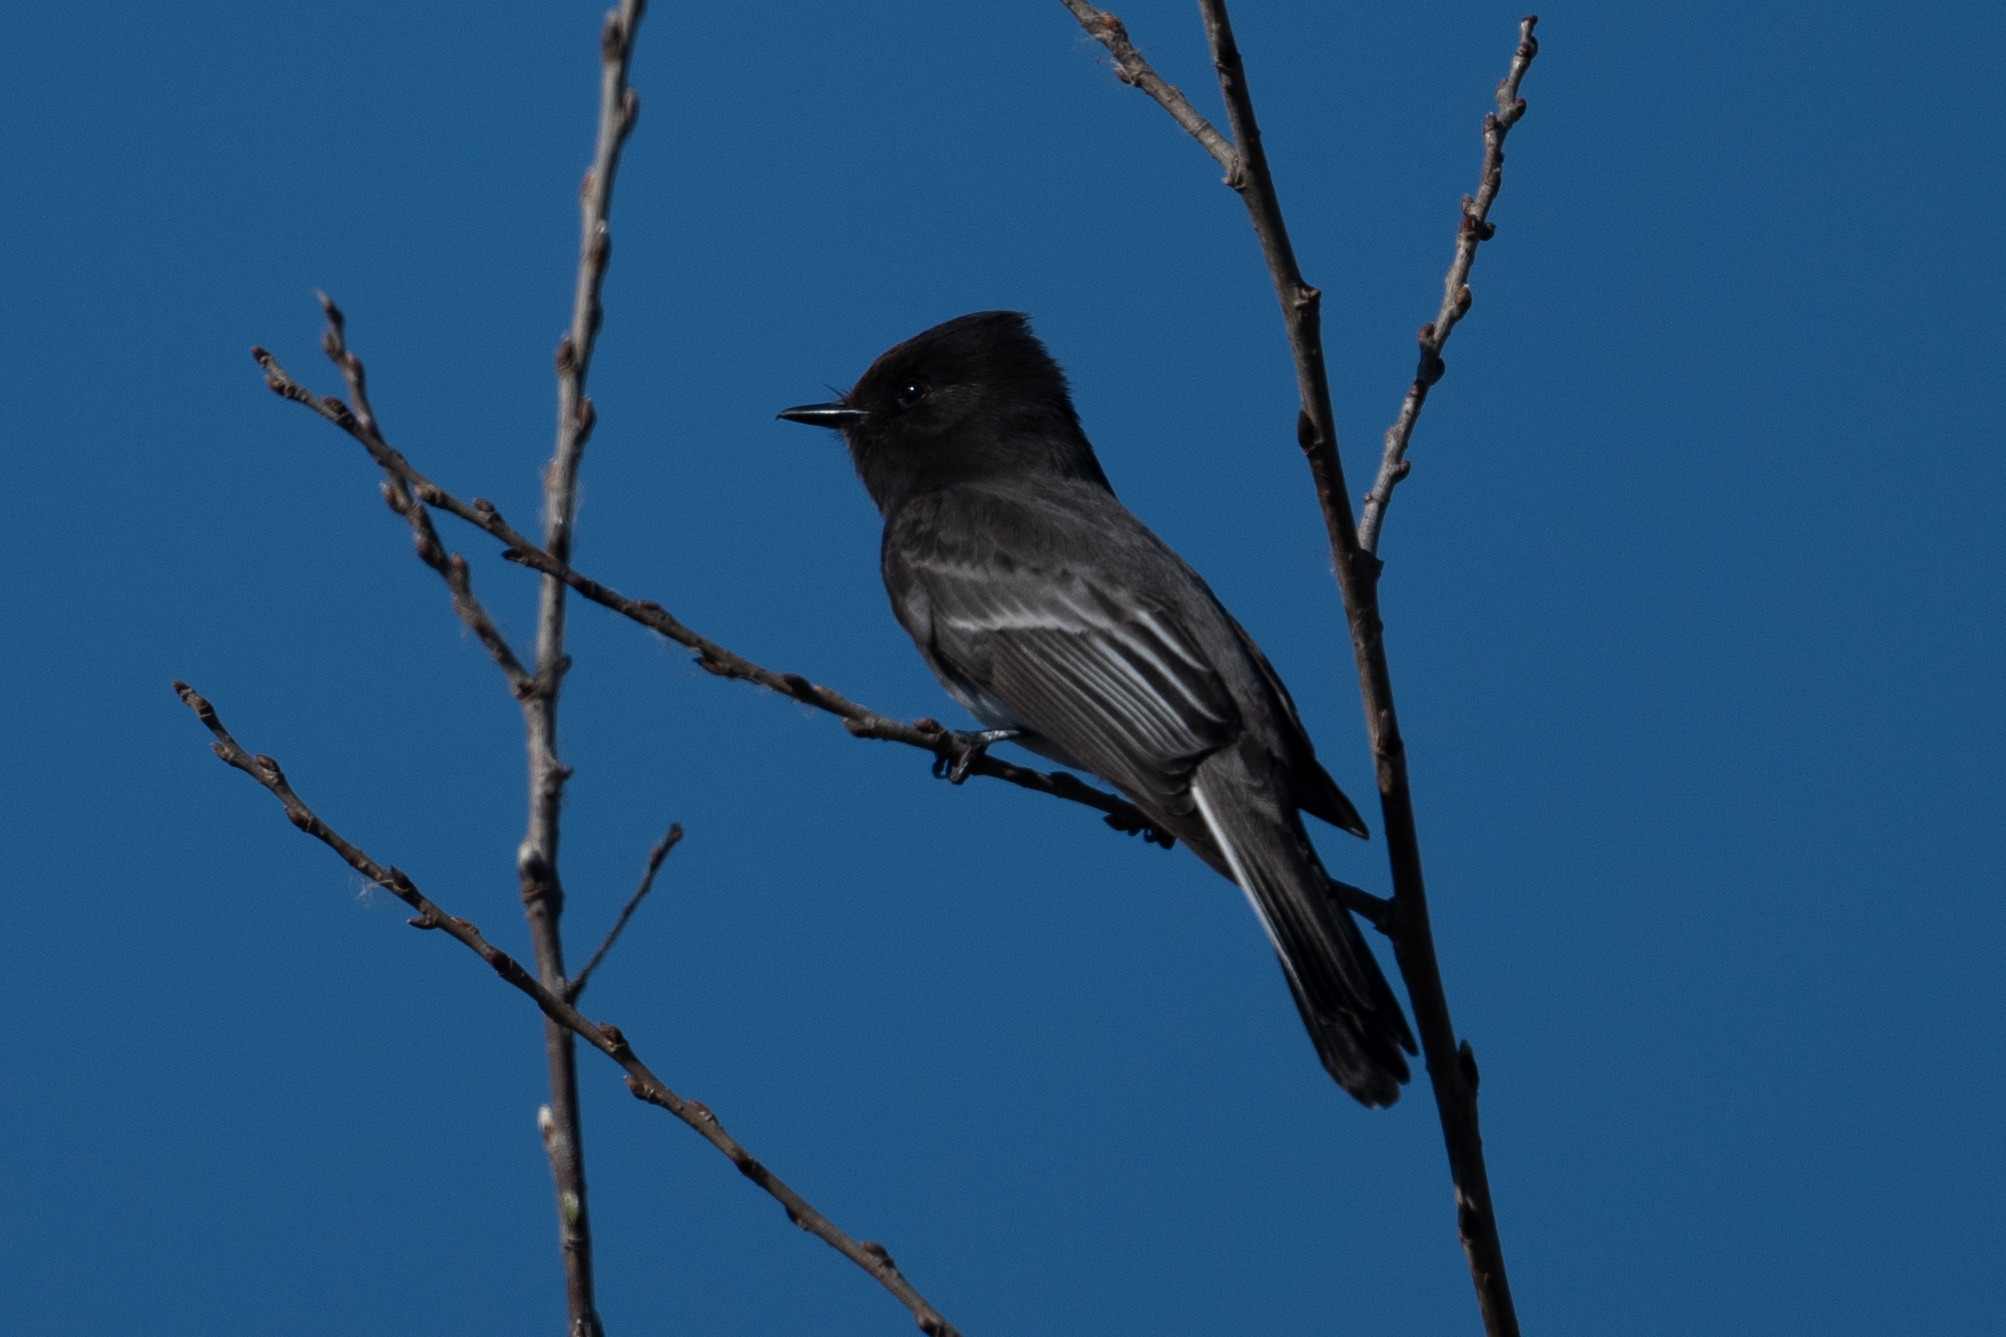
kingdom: Animalia
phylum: Chordata
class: Aves
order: Passeriformes
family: Tyrannidae
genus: Sayornis
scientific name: Sayornis nigricans
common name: Black phoebe
